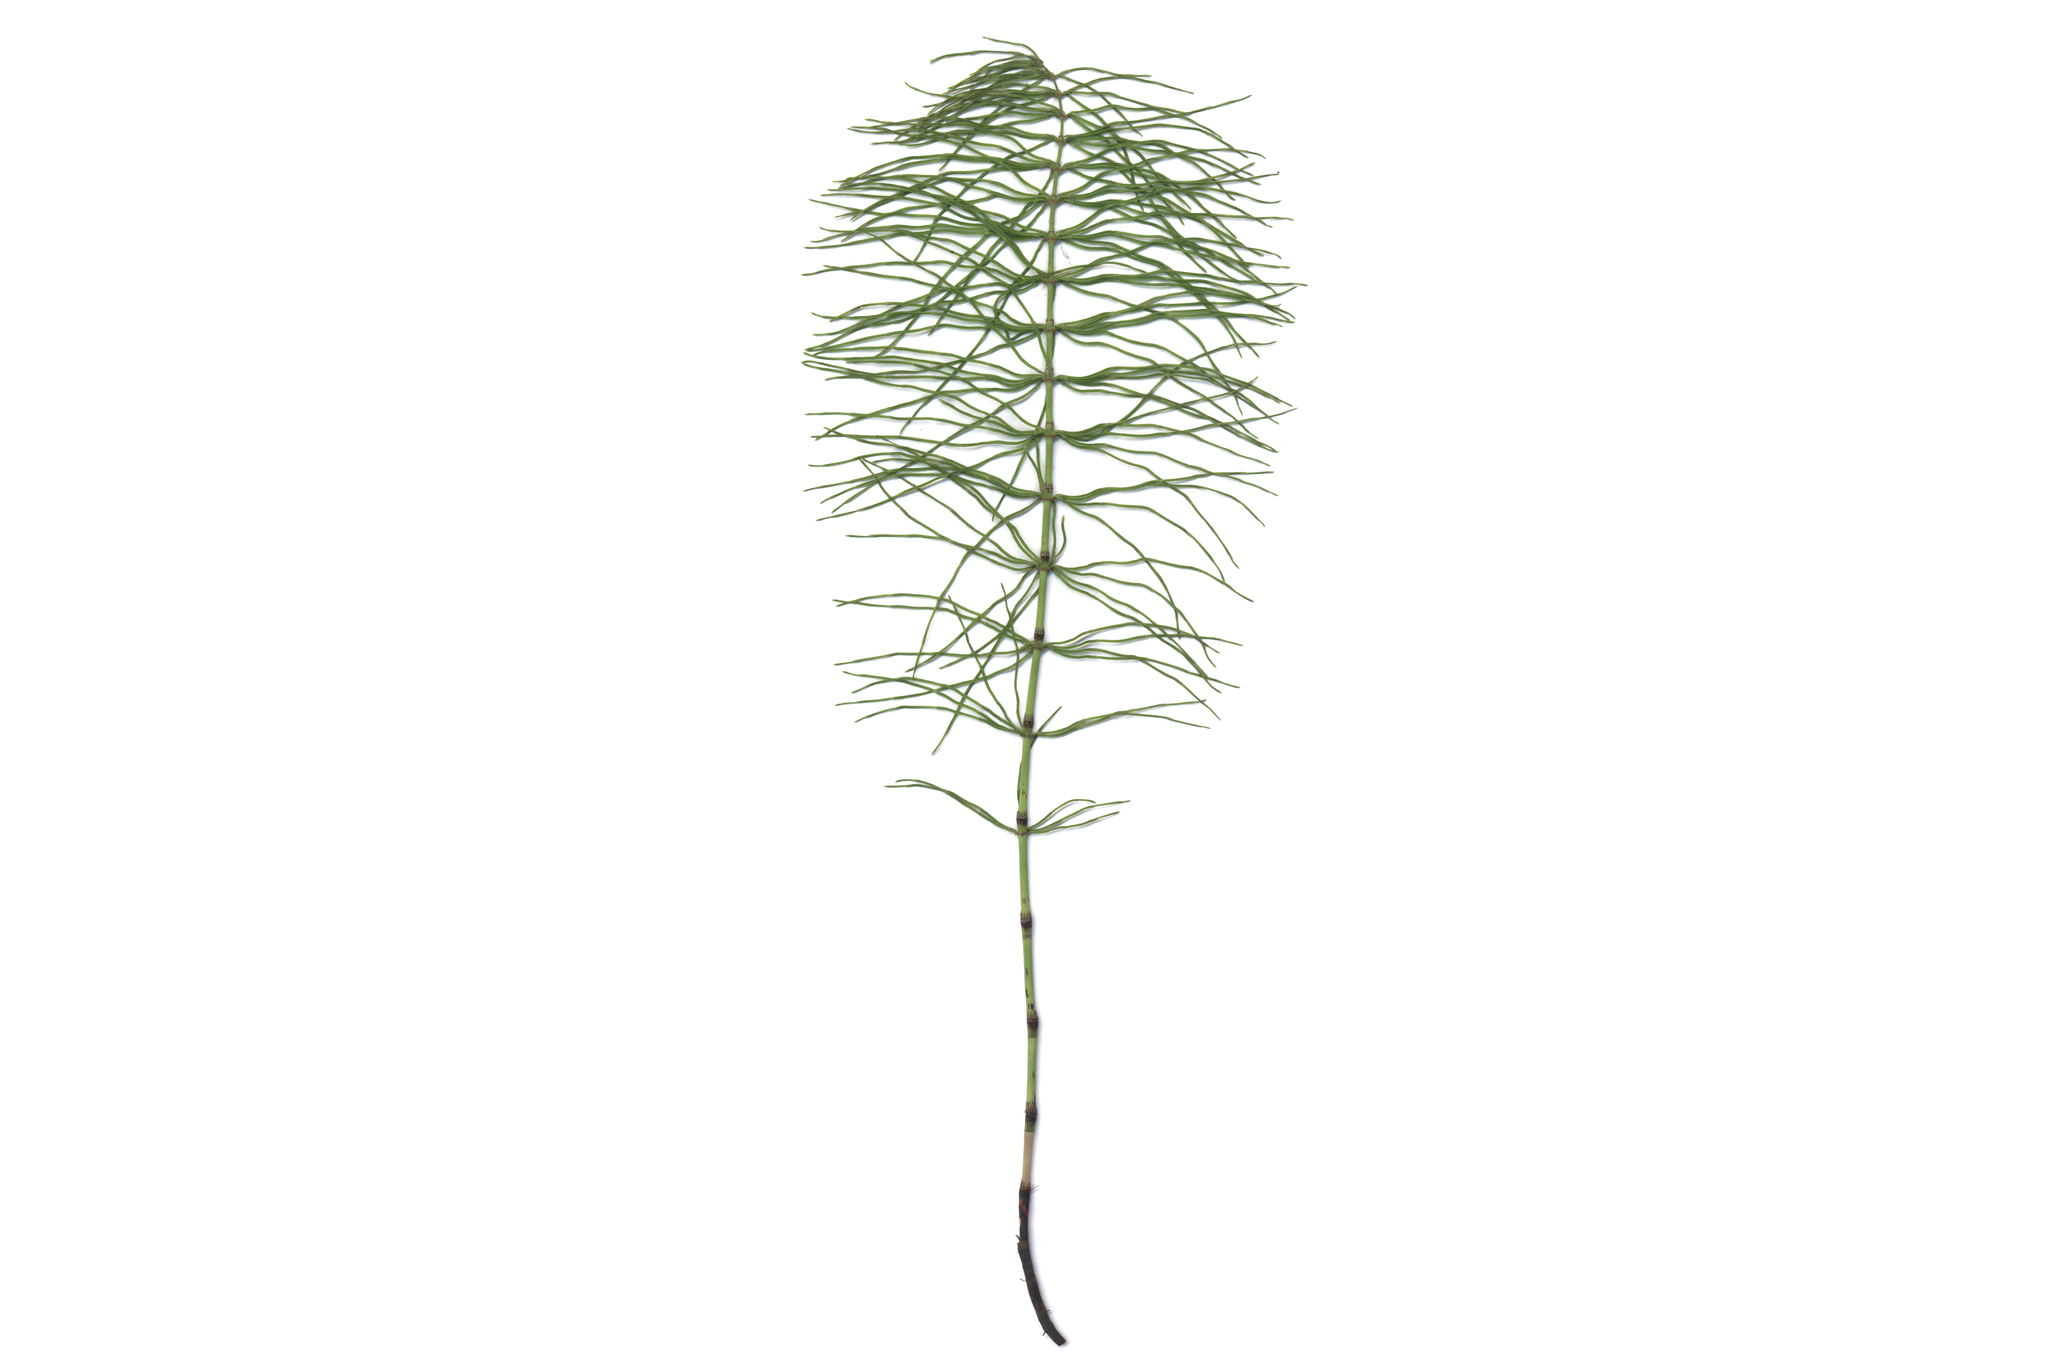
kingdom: Plantae
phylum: Tracheophyta
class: Polypodiopsida
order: Equisetales
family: Equisetaceae
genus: Equisetum
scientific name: Equisetum pratense
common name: Meadow horsetail
